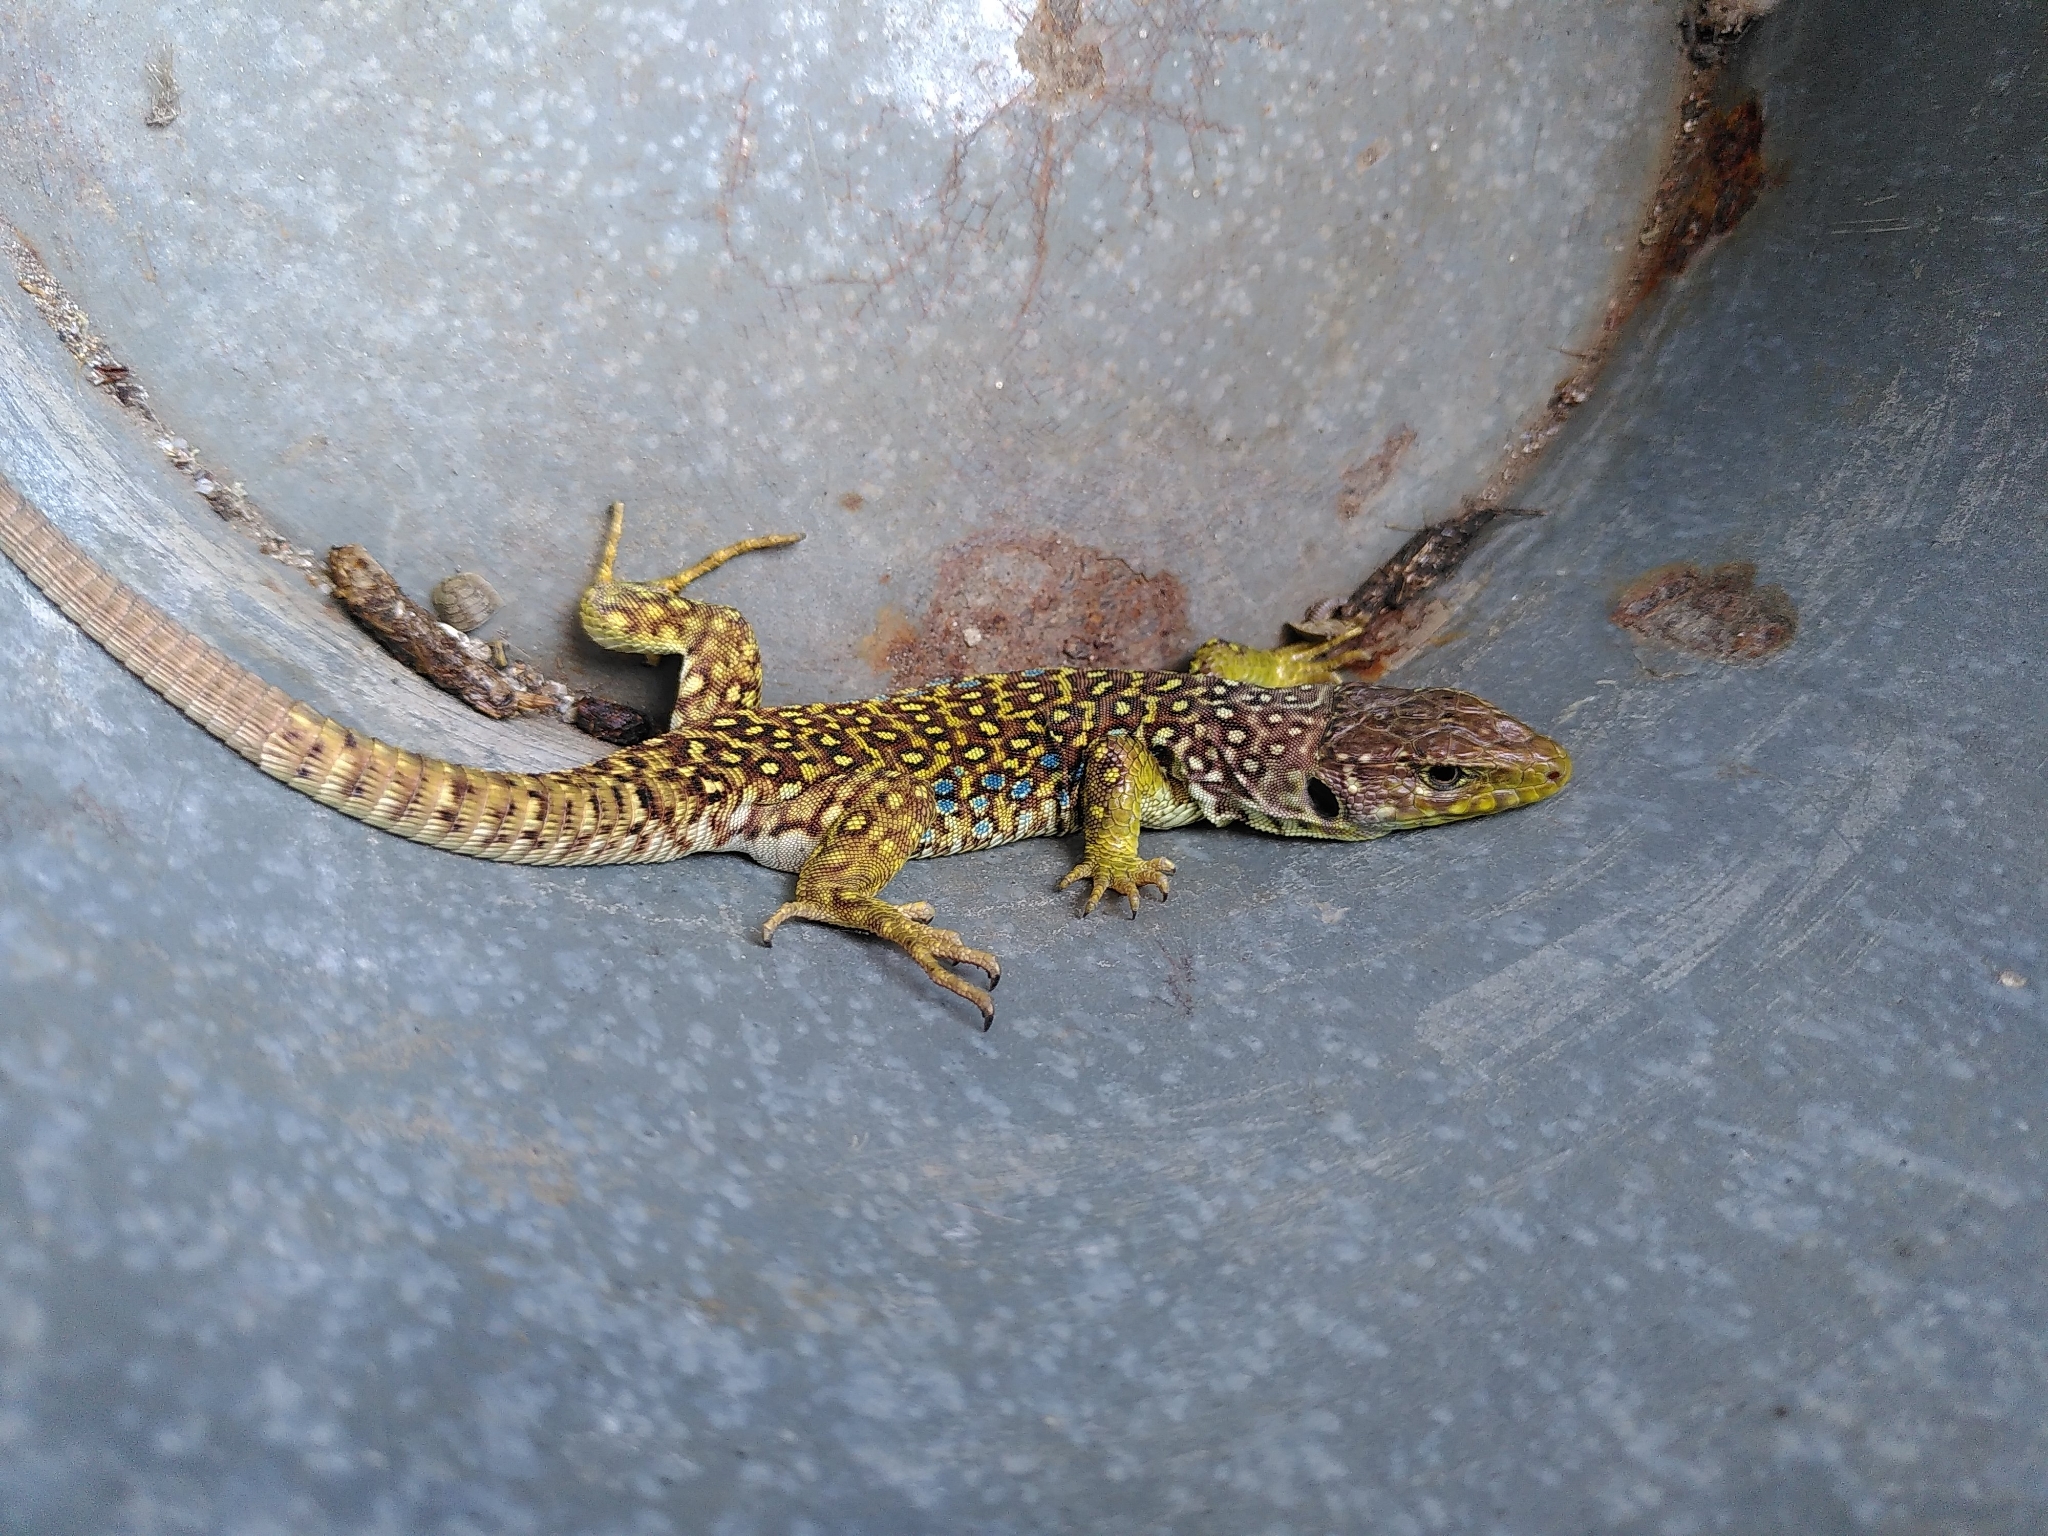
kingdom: Animalia
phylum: Chordata
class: Squamata
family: Lacertidae
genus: Timon
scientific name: Timon lepidus
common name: Ocellated lizard
